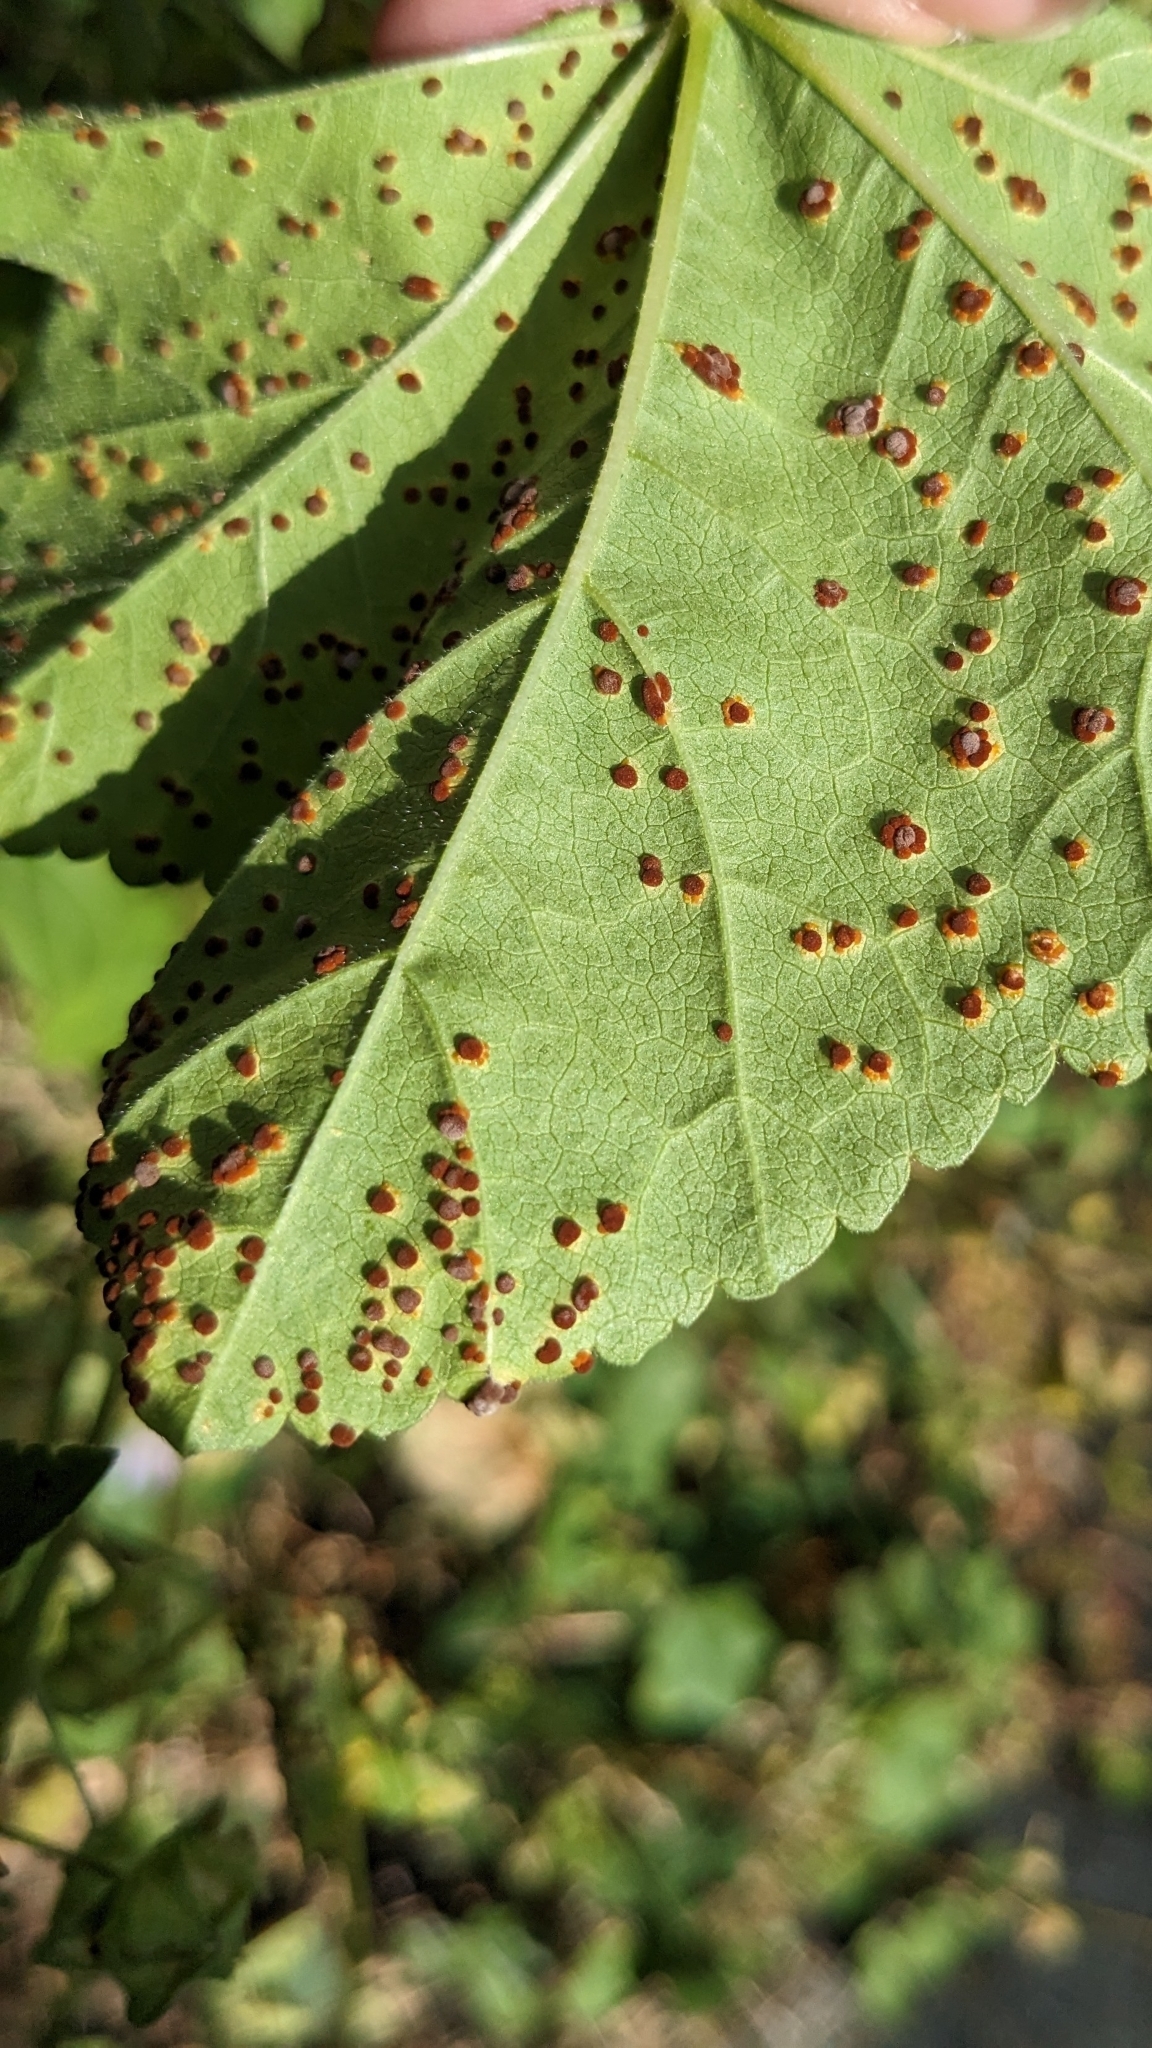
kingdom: Fungi
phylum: Basidiomycota
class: Pucciniomycetes
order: Pucciniales
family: Pucciniaceae
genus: Puccinia
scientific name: Puccinia malvacearum
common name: Hollyhock rust
